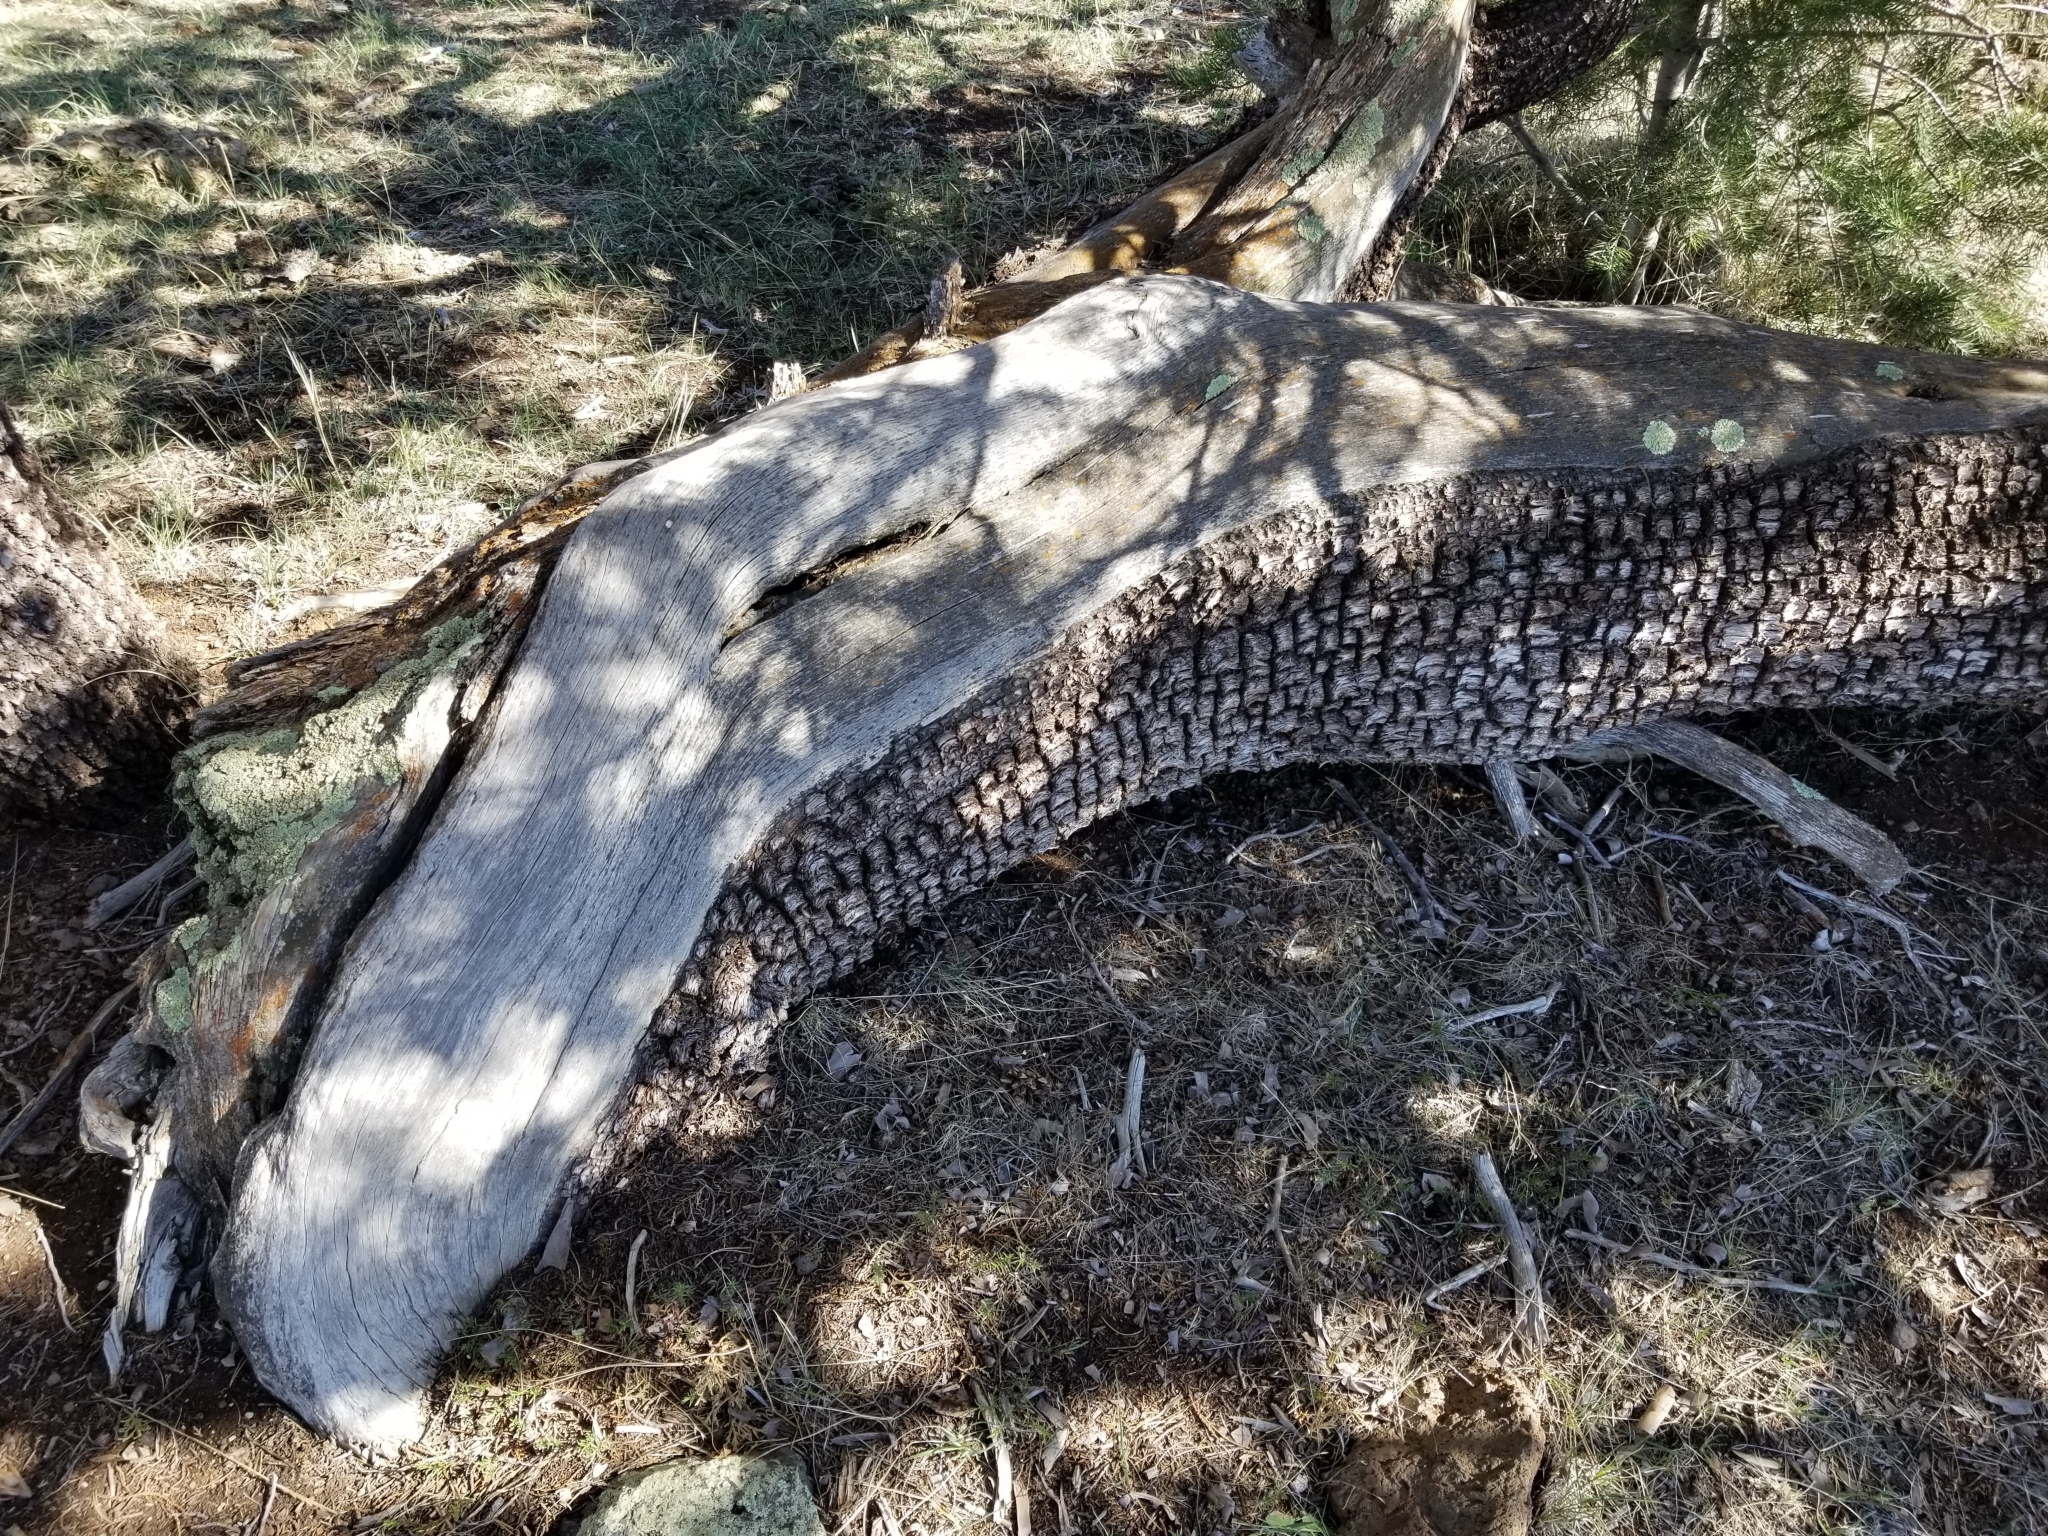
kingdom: Plantae
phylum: Tracheophyta
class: Pinopsida
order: Pinales
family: Cupressaceae
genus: Juniperus
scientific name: Juniperus deppeana
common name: Alligator juniper
